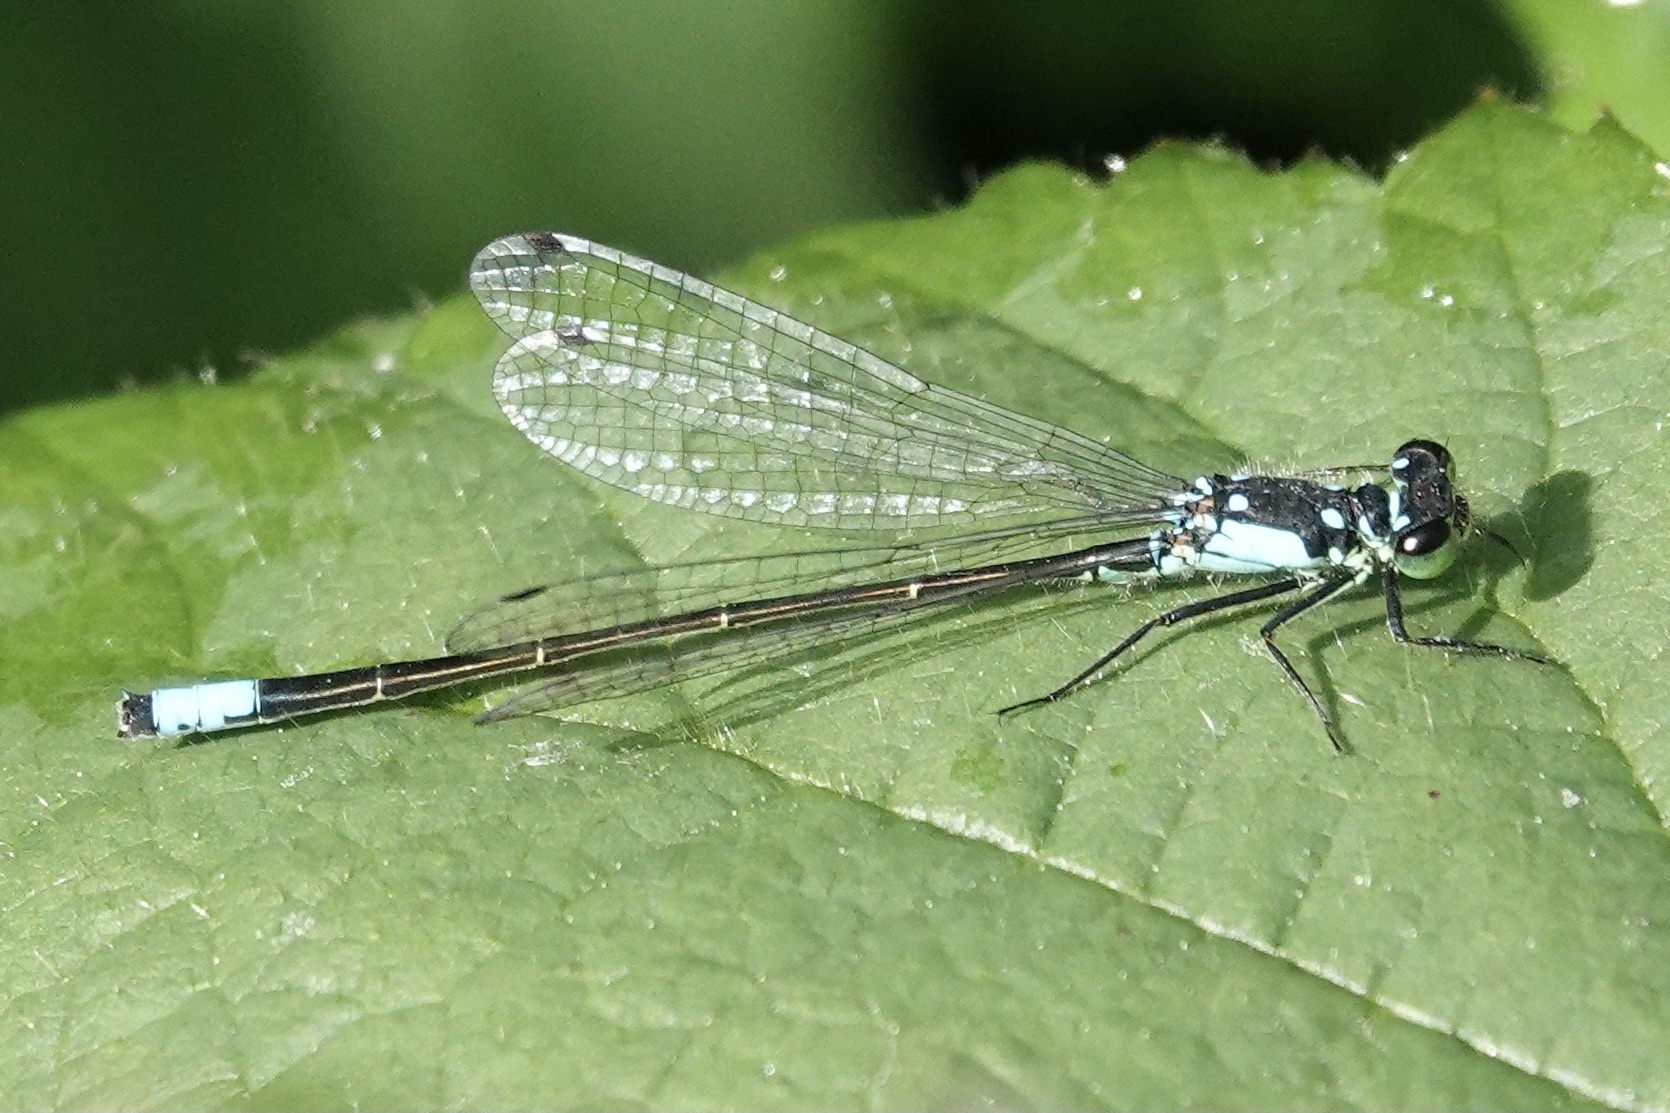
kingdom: Animalia
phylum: Arthropoda
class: Insecta
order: Odonata
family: Coenagrionidae
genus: Ischnura
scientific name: Ischnura cervula
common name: Pacific forktail
